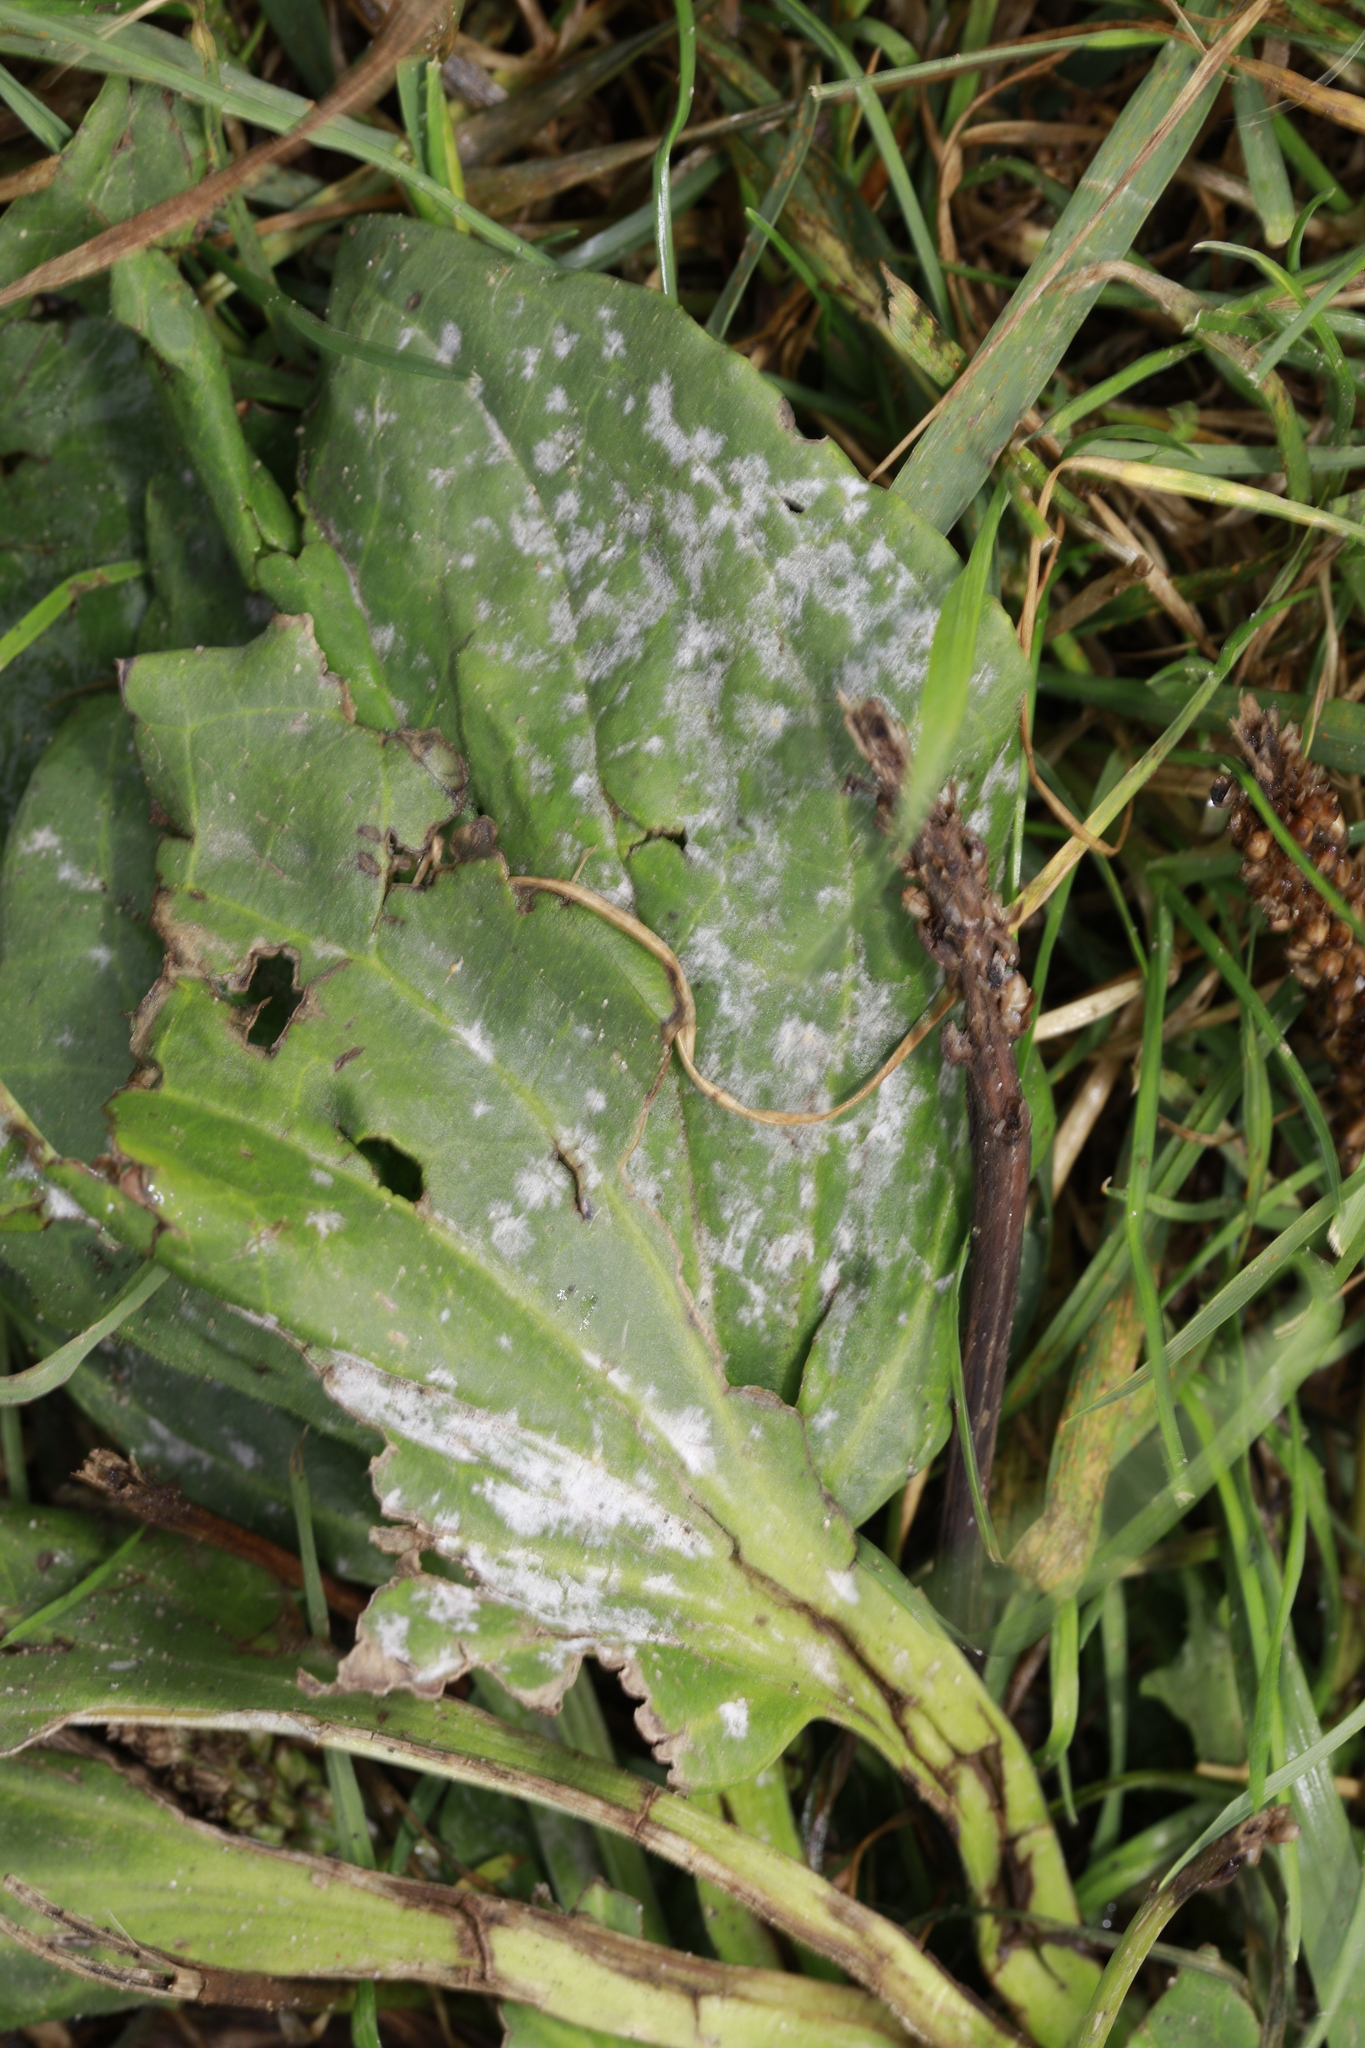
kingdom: Fungi
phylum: Ascomycota
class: Leotiomycetes
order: Helotiales
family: Erysiphaceae
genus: Golovinomyces
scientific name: Golovinomyces sordidus
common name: Plantain mildew
